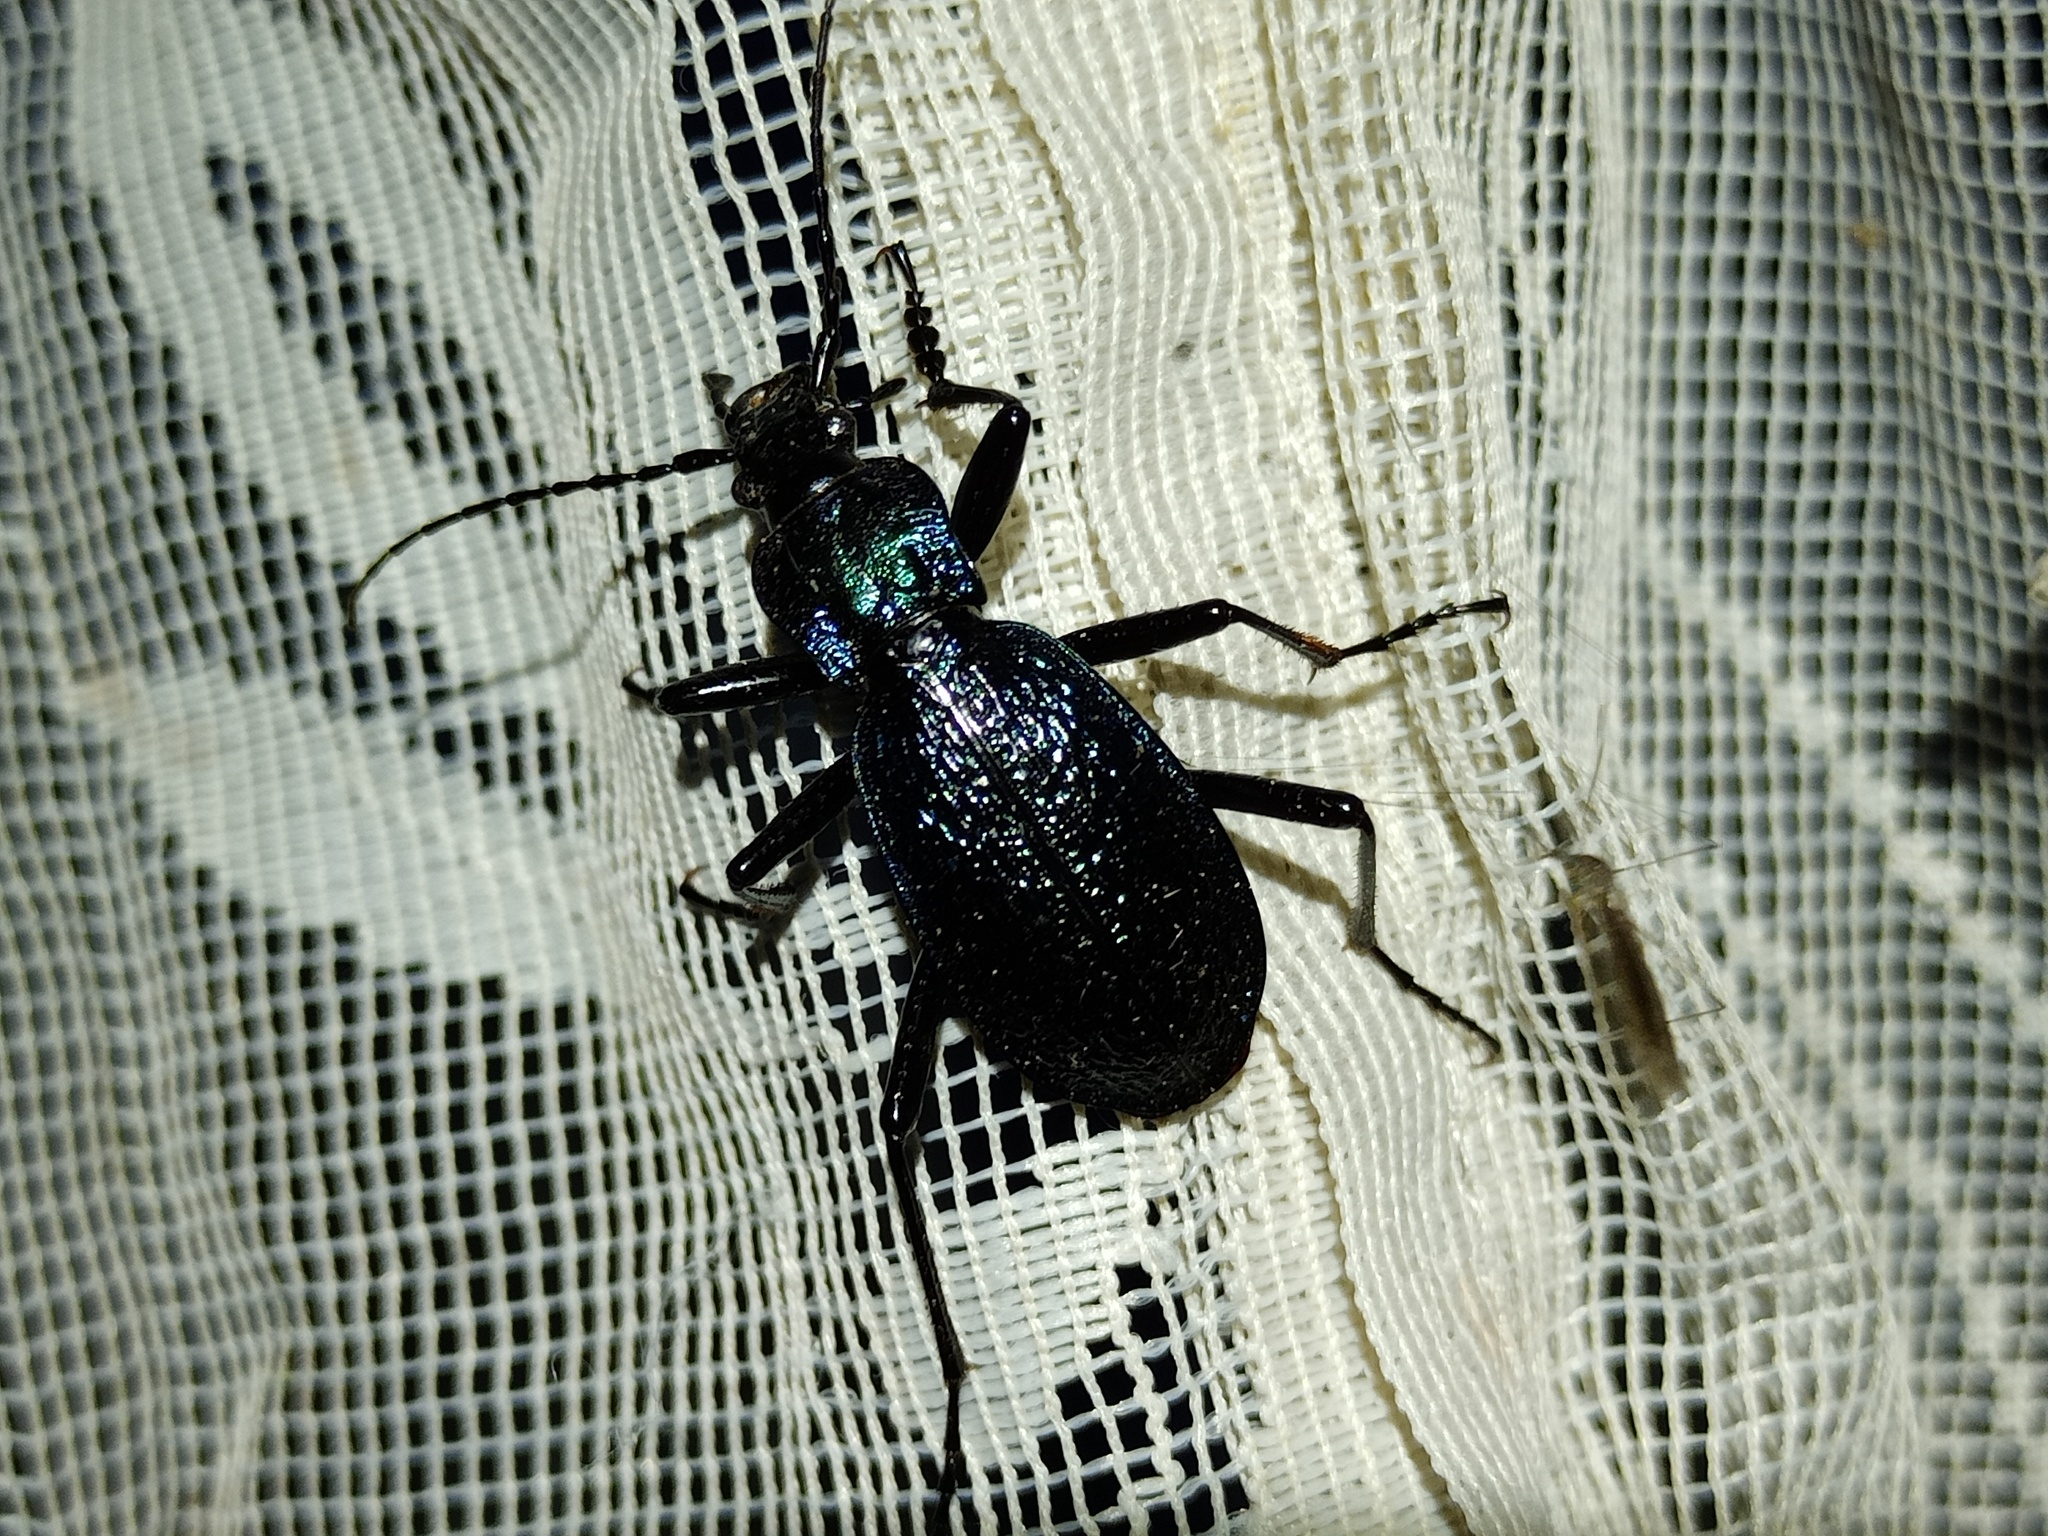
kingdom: Animalia
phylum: Arthropoda
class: Insecta
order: Coleoptera
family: Carabidae
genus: Carabus
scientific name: Carabus intricatus
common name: Blue ground beetle
